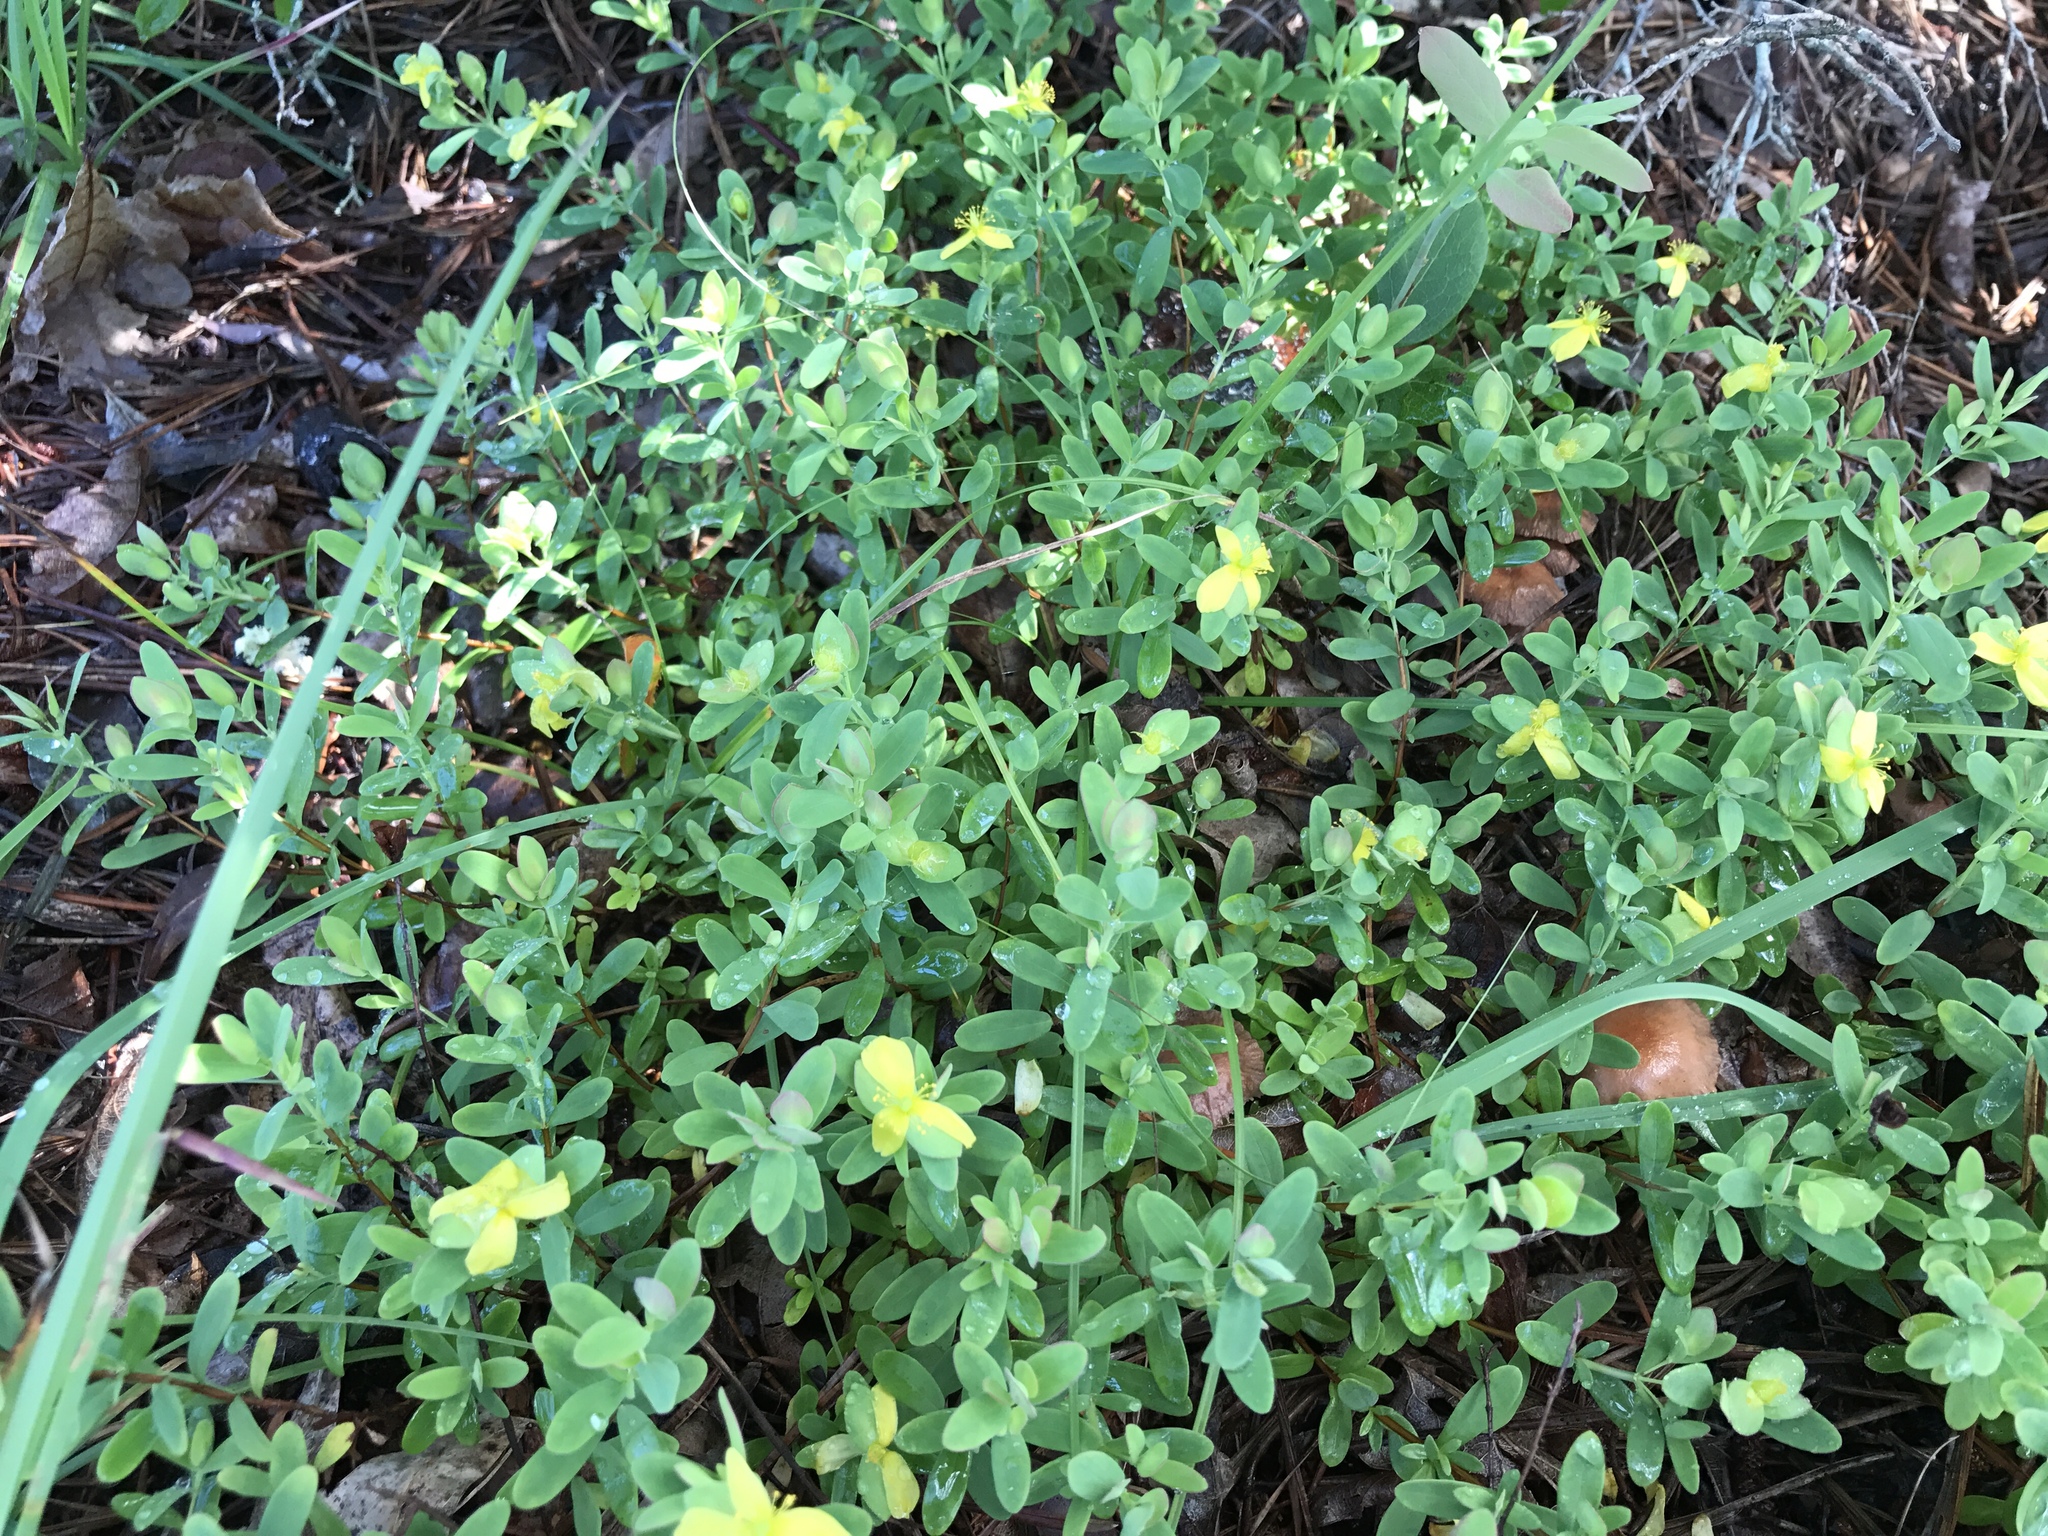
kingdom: Plantae
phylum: Tracheophyta
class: Magnoliopsida
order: Malpighiales
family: Hypericaceae
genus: Hypericum
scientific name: Hypericum hypericoides
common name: St. andrew's cross
